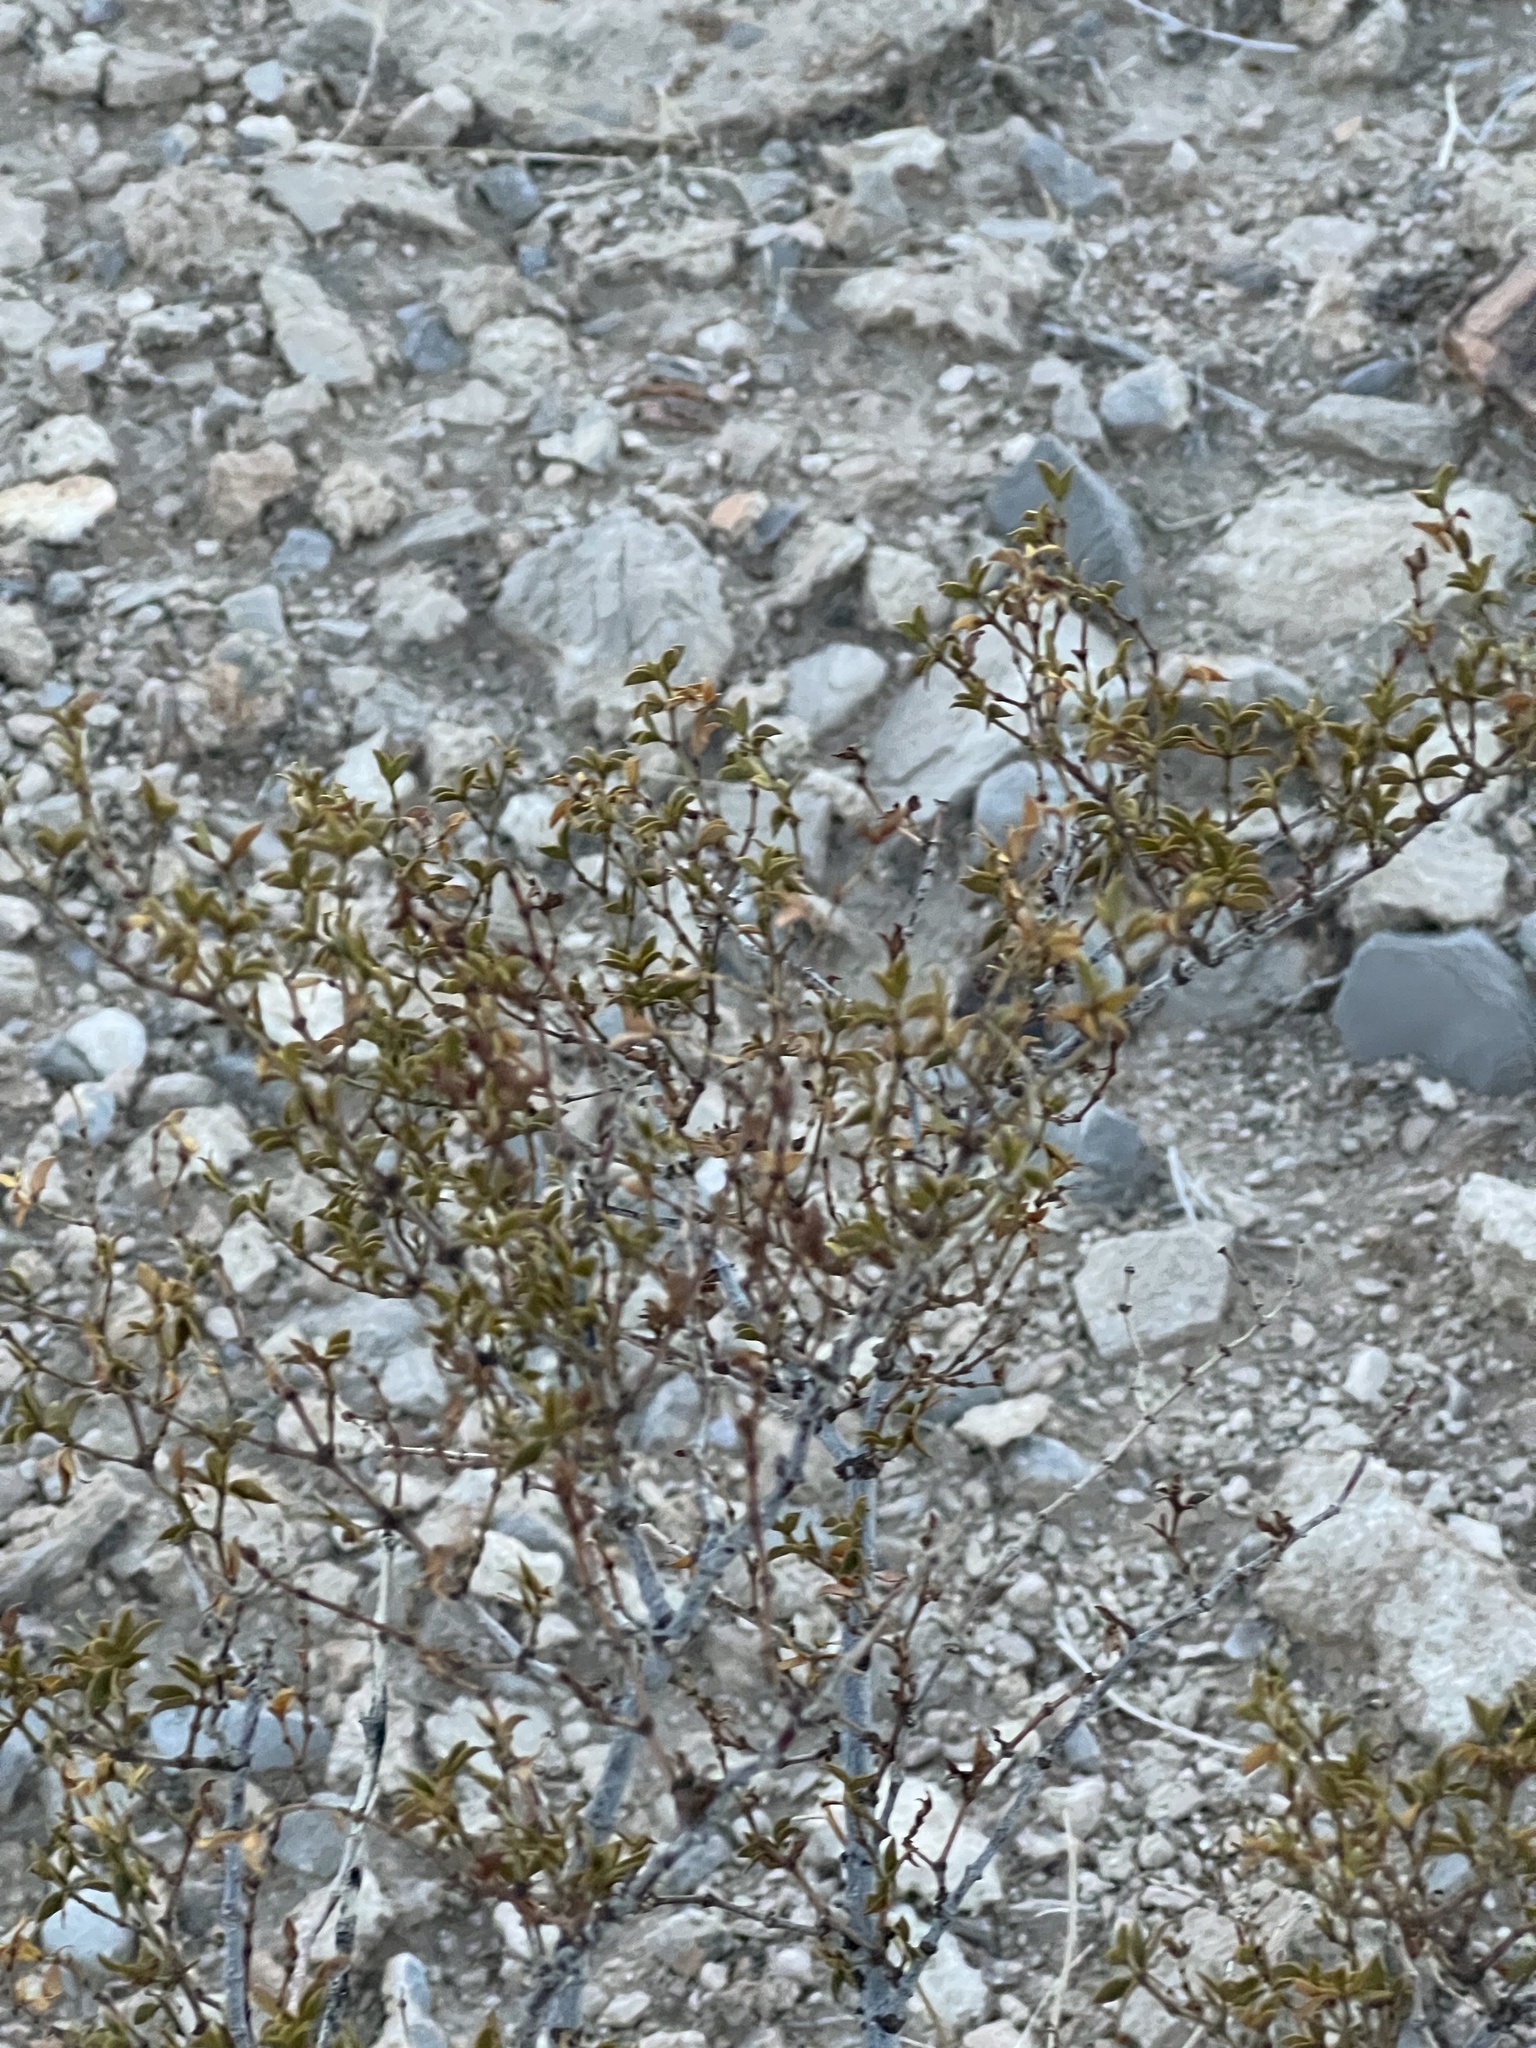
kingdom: Plantae
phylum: Tracheophyta
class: Magnoliopsida
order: Zygophyllales
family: Zygophyllaceae
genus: Larrea
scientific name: Larrea tridentata
